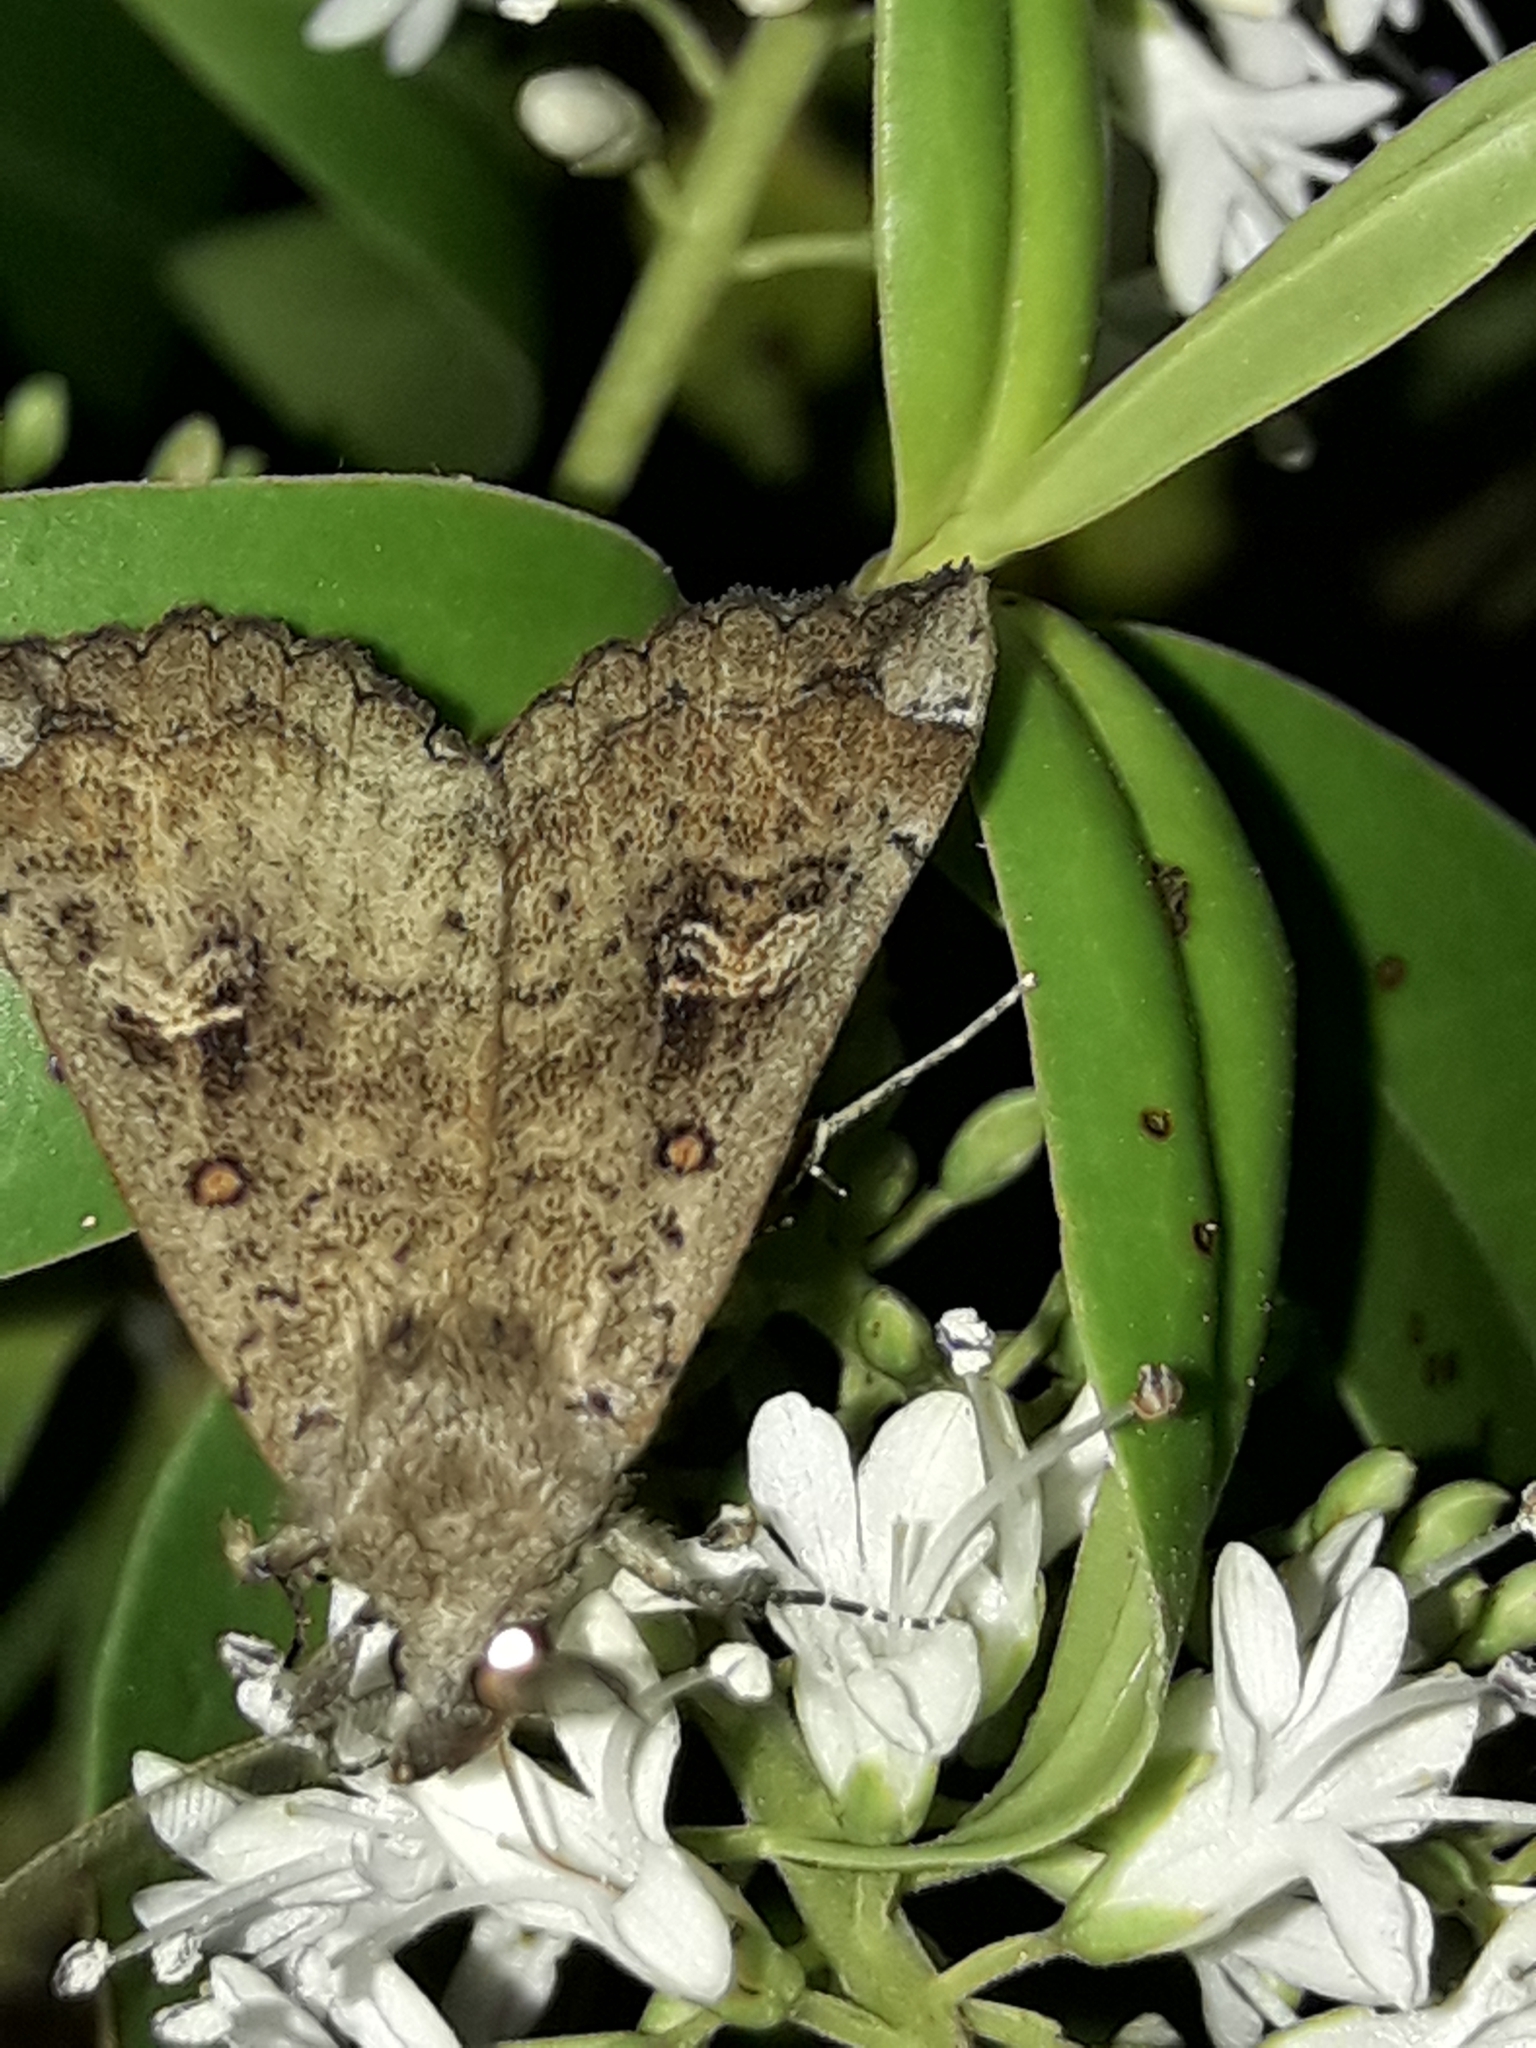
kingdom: Animalia
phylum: Arthropoda
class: Insecta
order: Lepidoptera
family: Erebidae
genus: Rhapsa
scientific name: Rhapsa scotosialis
